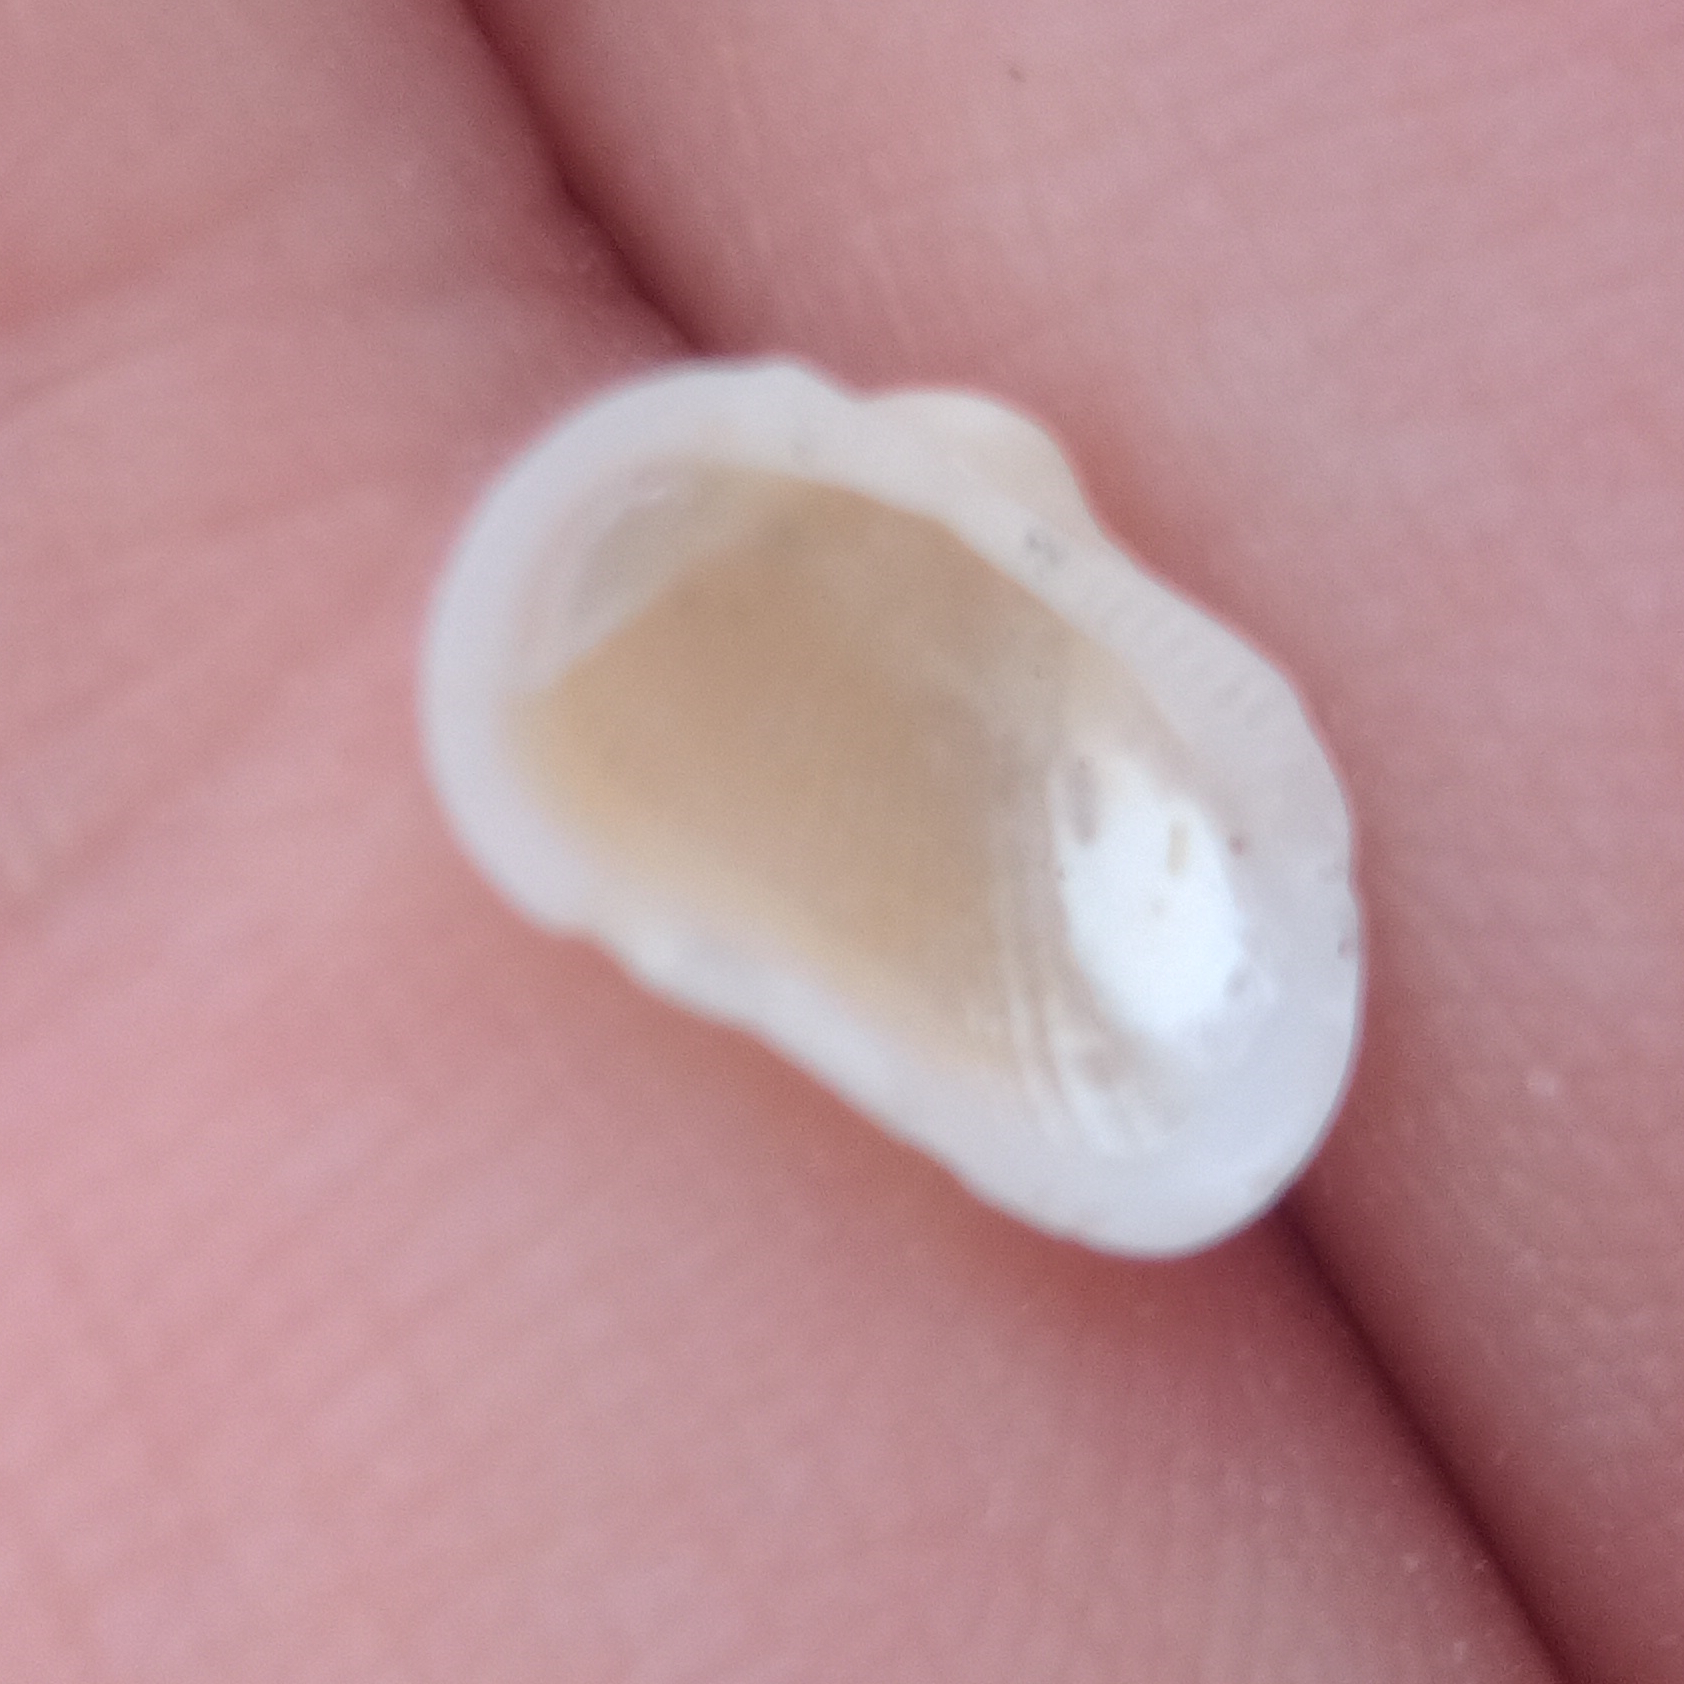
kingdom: Animalia
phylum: Mollusca
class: Bivalvia
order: Arcida
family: Noetiidae
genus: Arcopsis
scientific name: Arcopsis adamsi
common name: Cancellate miniature ark
